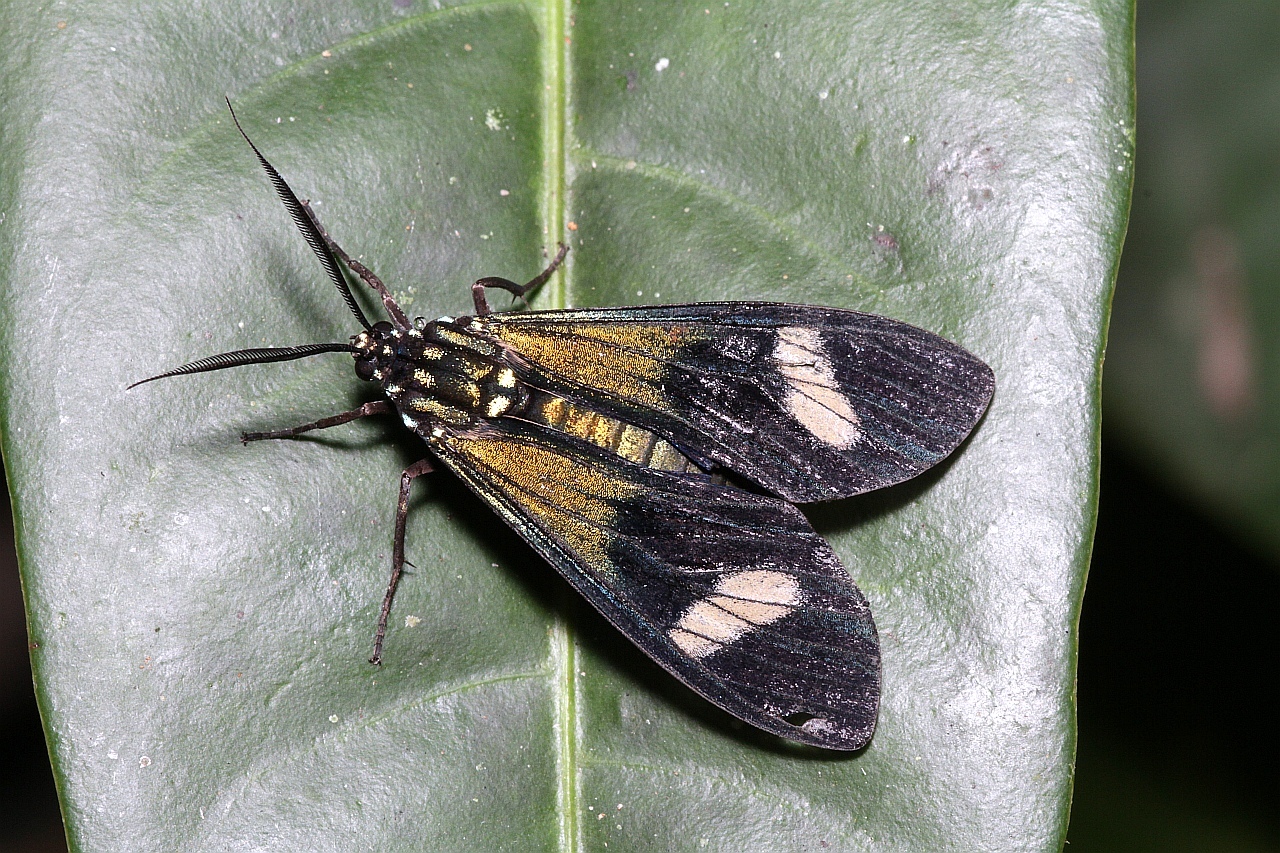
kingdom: Animalia
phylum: Arthropoda
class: Insecta
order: Lepidoptera
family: Erebidae
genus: Belemniastis
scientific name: Belemniastis whiteleyi
